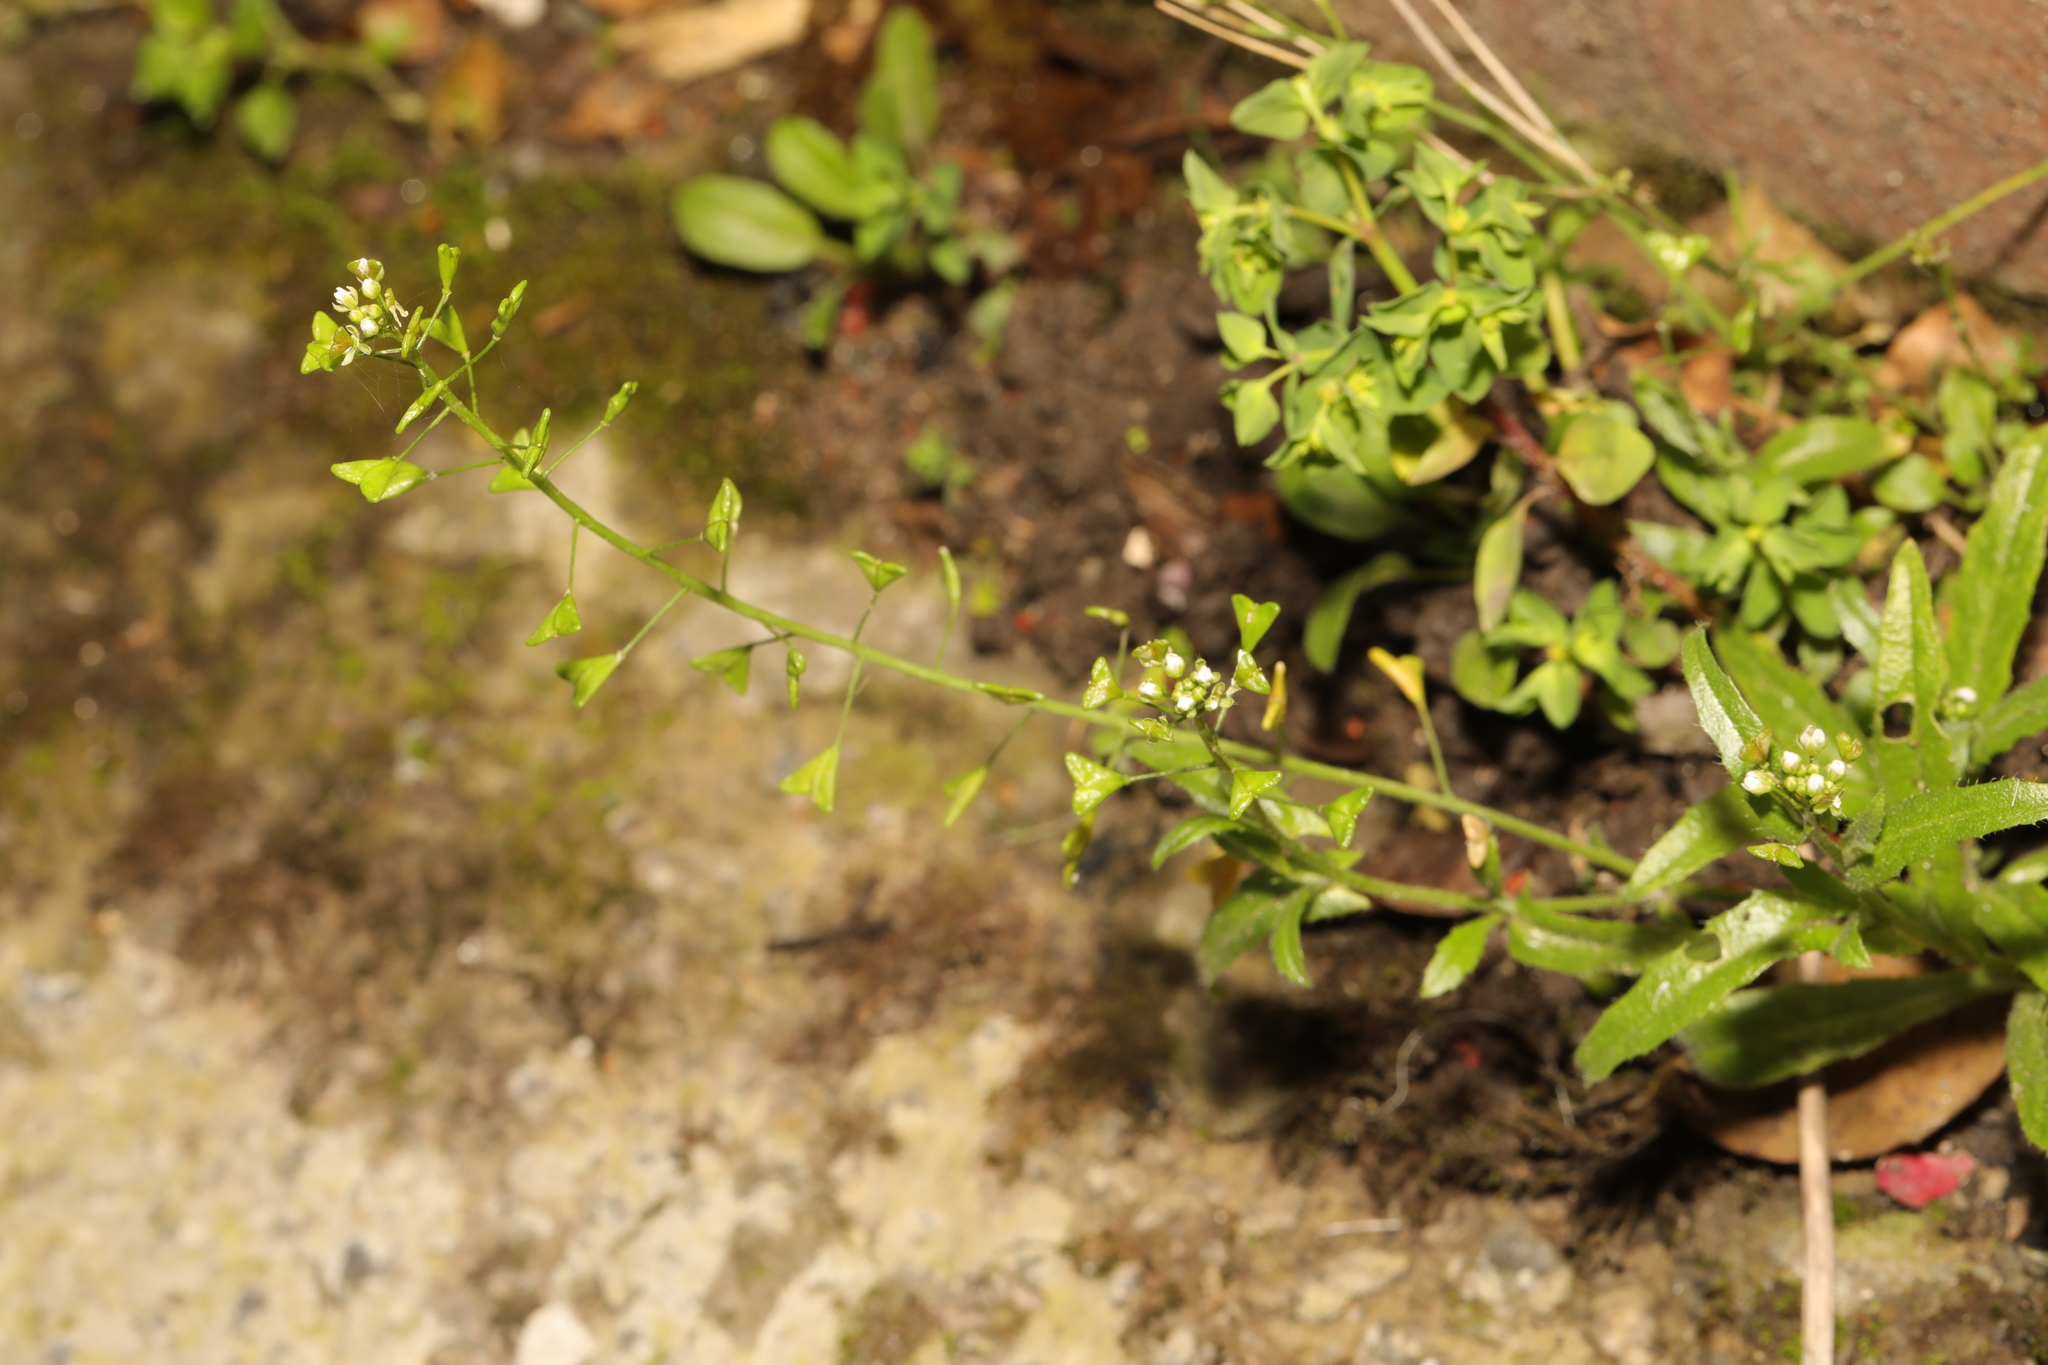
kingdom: Plantae
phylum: Tracheophyta
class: Magnoliopsida
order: Brassicales
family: Brassicaceae
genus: Capsella
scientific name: Capsella bursa-pastoris
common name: Shepherd's purse
